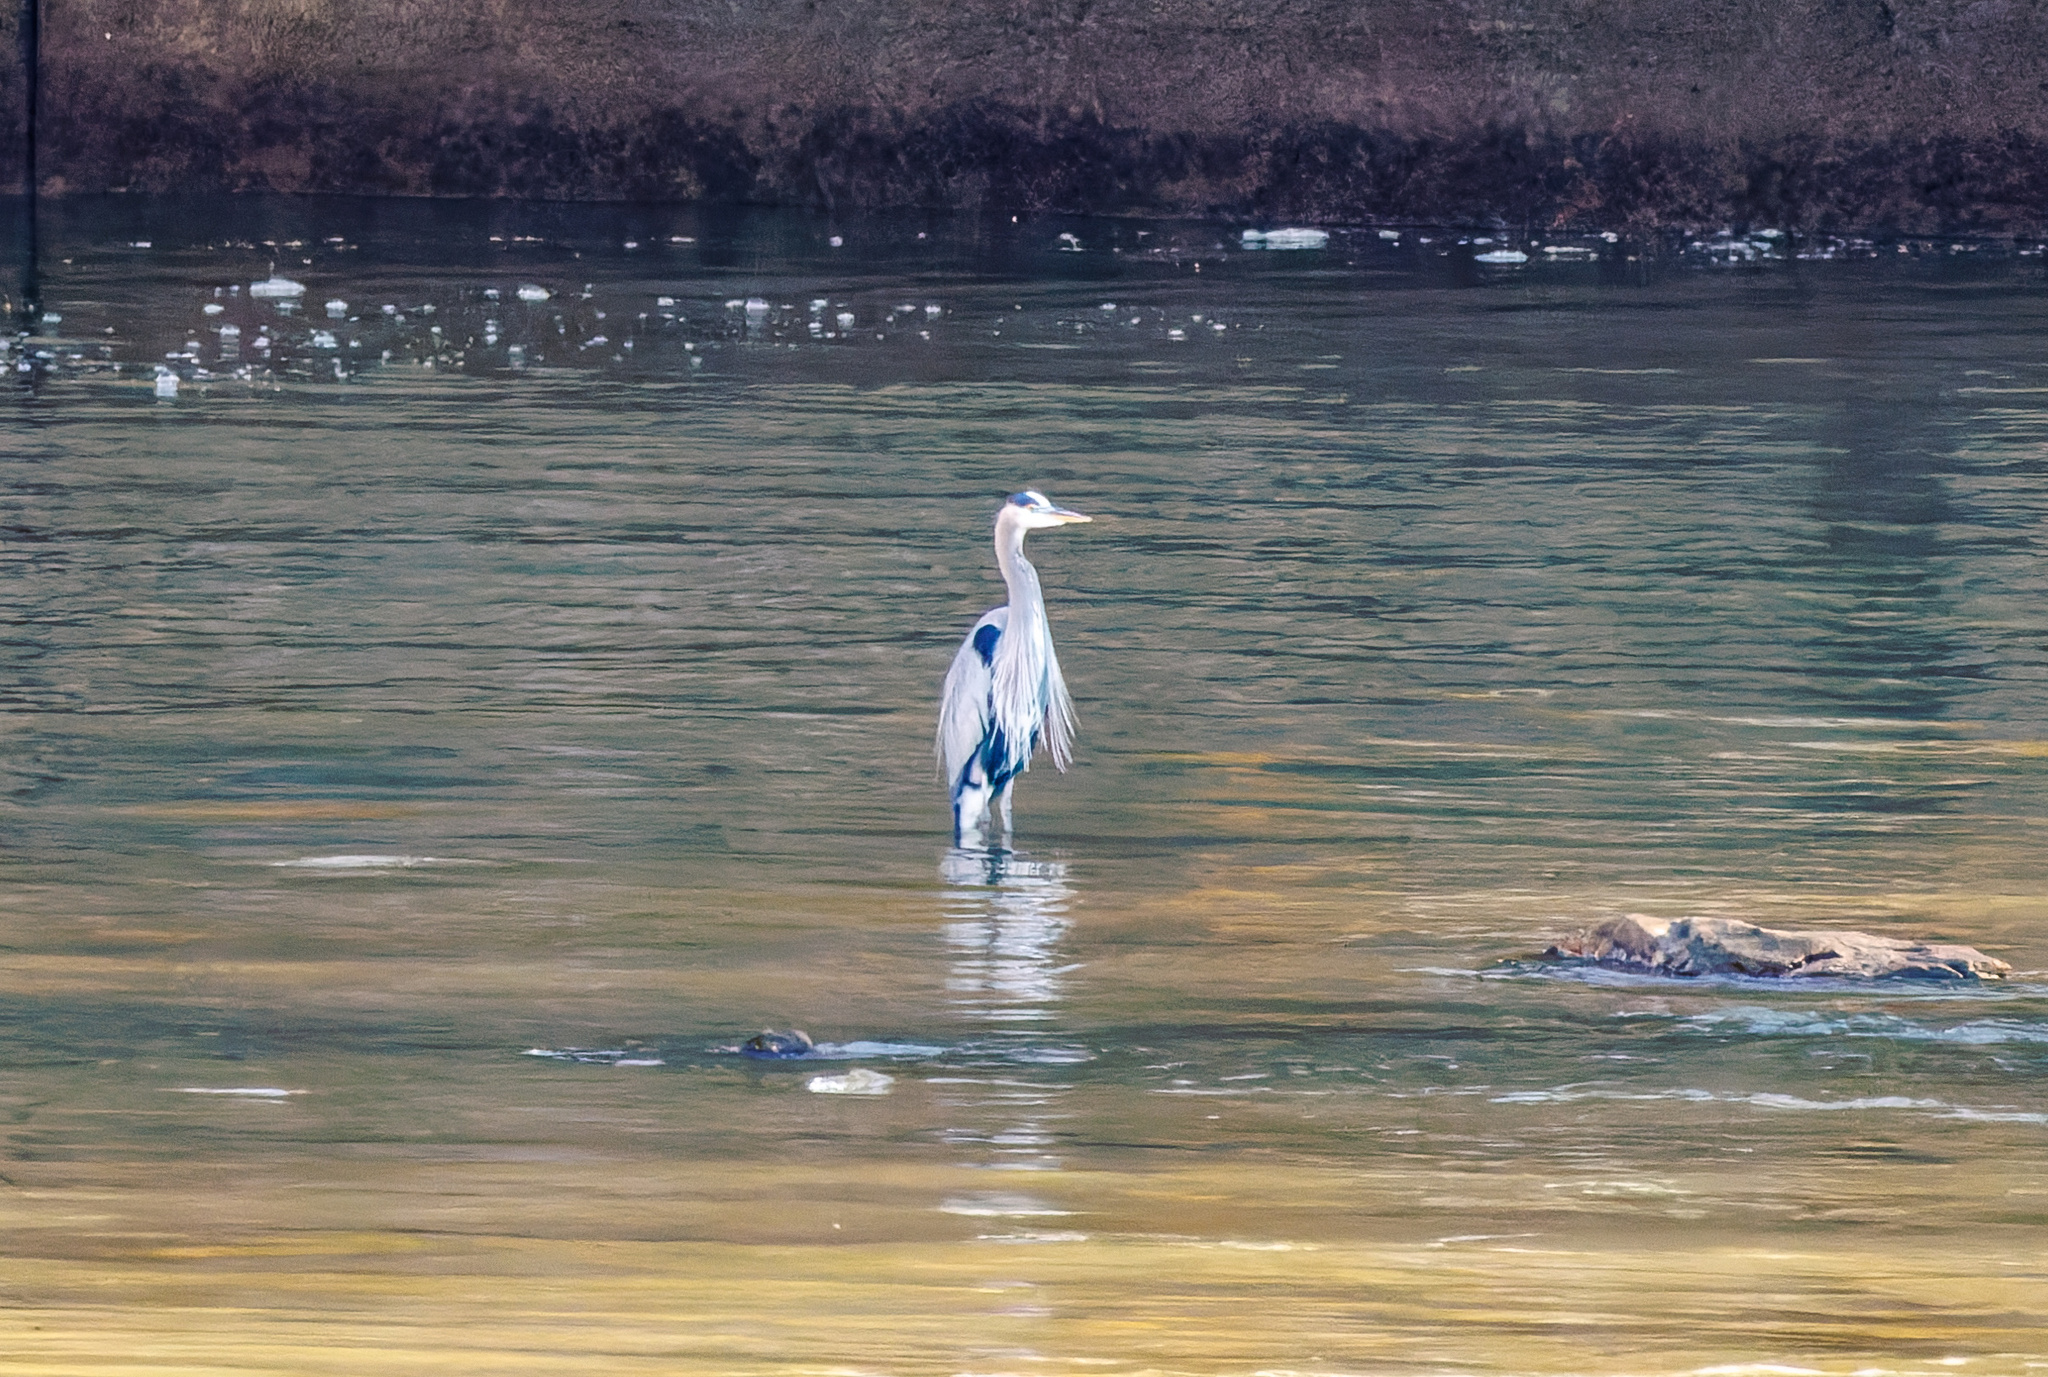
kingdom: Animalia
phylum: Chordata
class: Aves
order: Pelecaniformes
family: Ardeidae
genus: Ardea
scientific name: Ardea herodias
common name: Great blue heron
